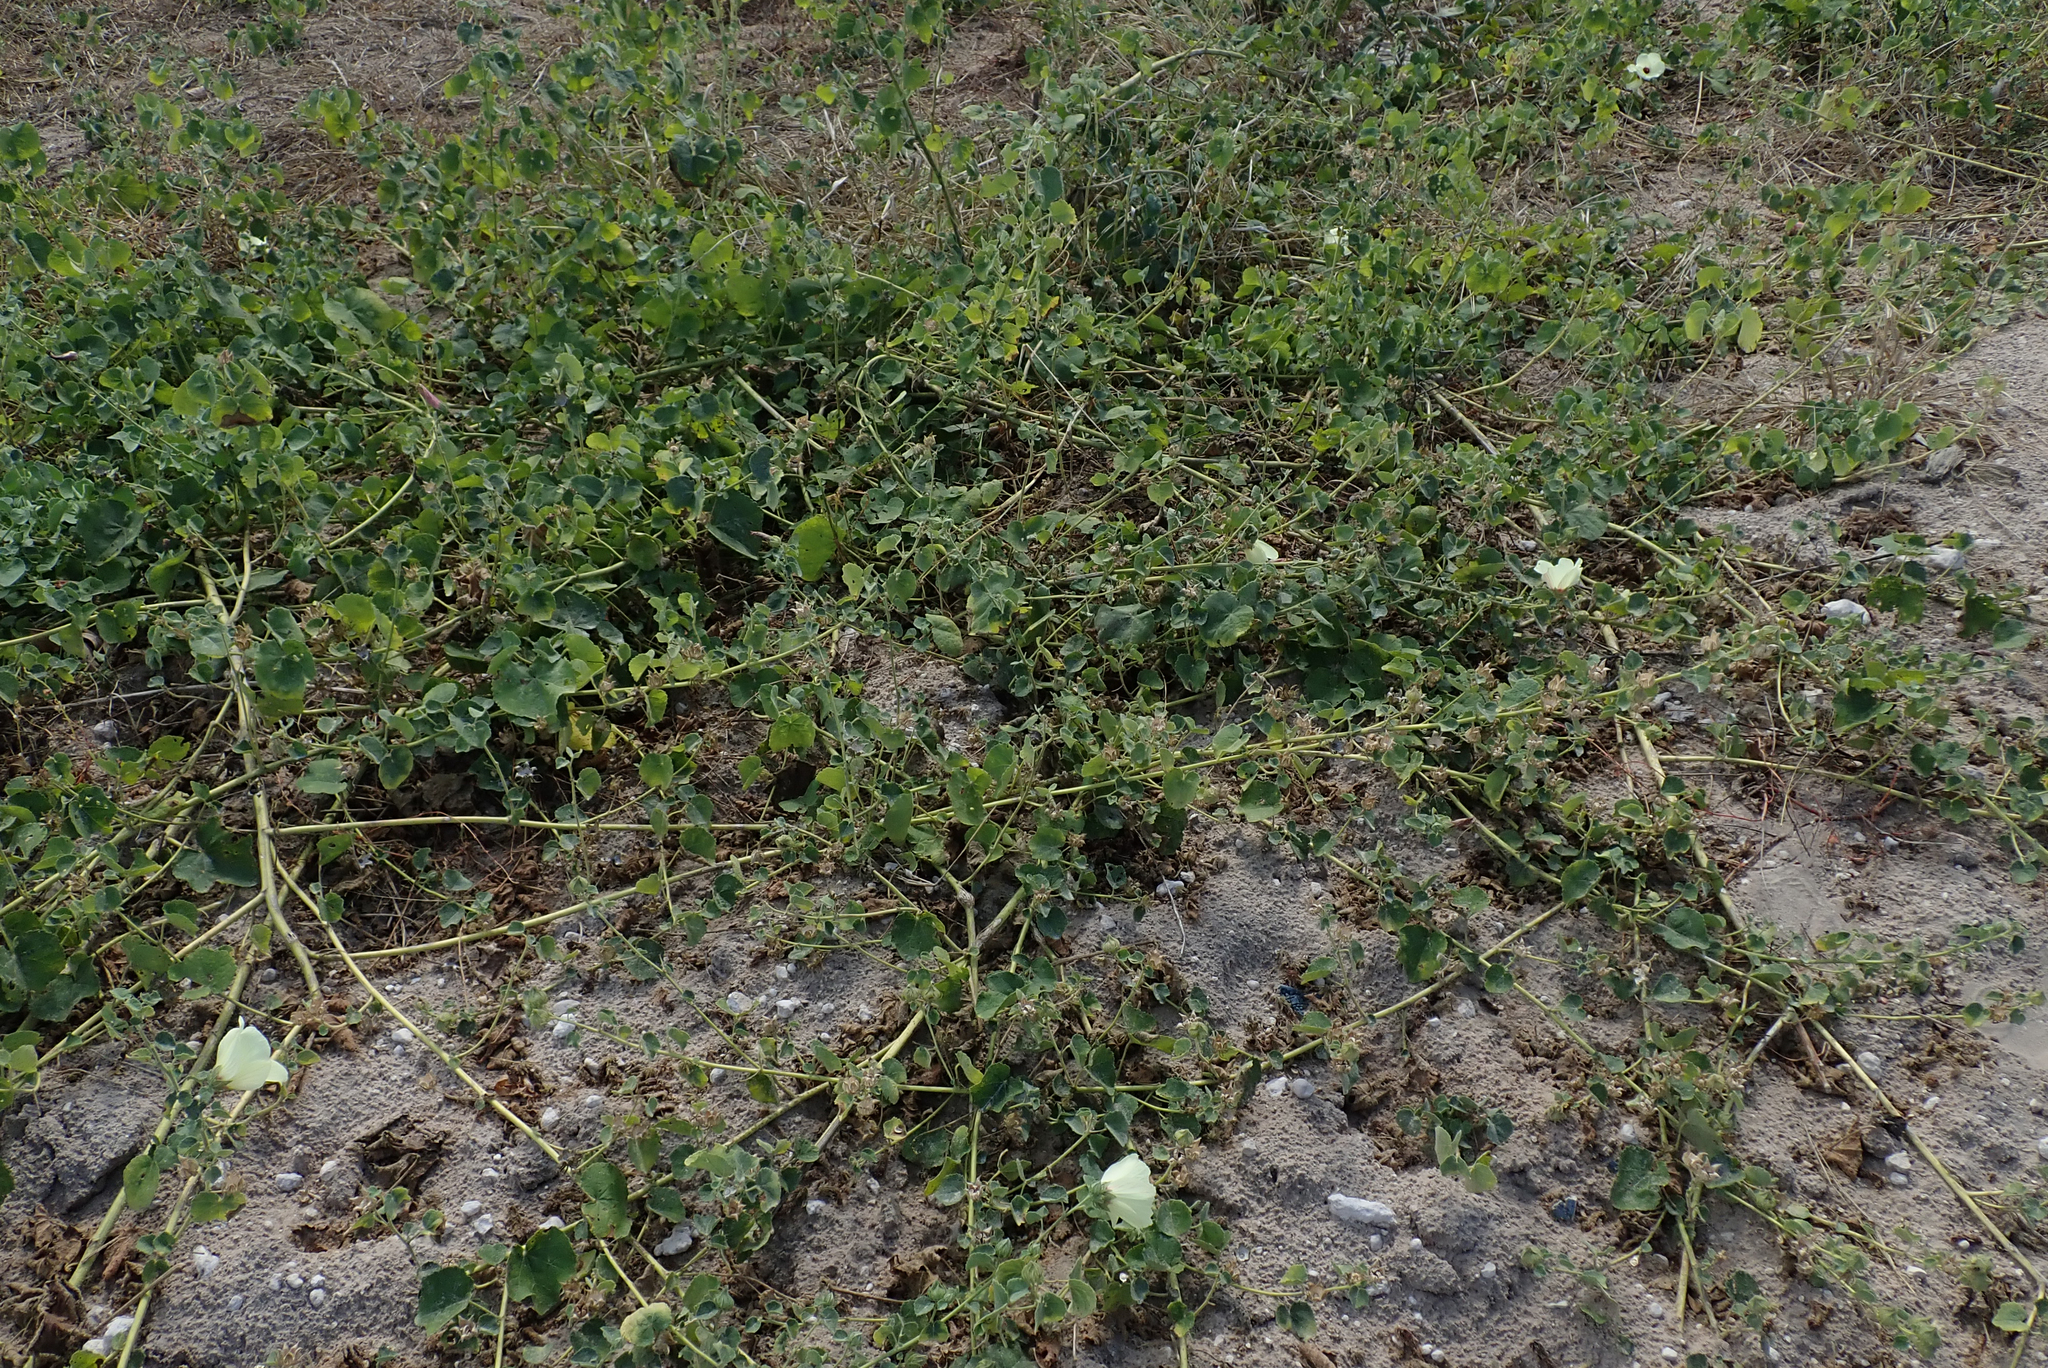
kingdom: Plantae
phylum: Tracheophyta
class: Magnoliopsida
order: Malvales
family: Malvaceae
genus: Pavonia
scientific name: Pavonia senegalensis
